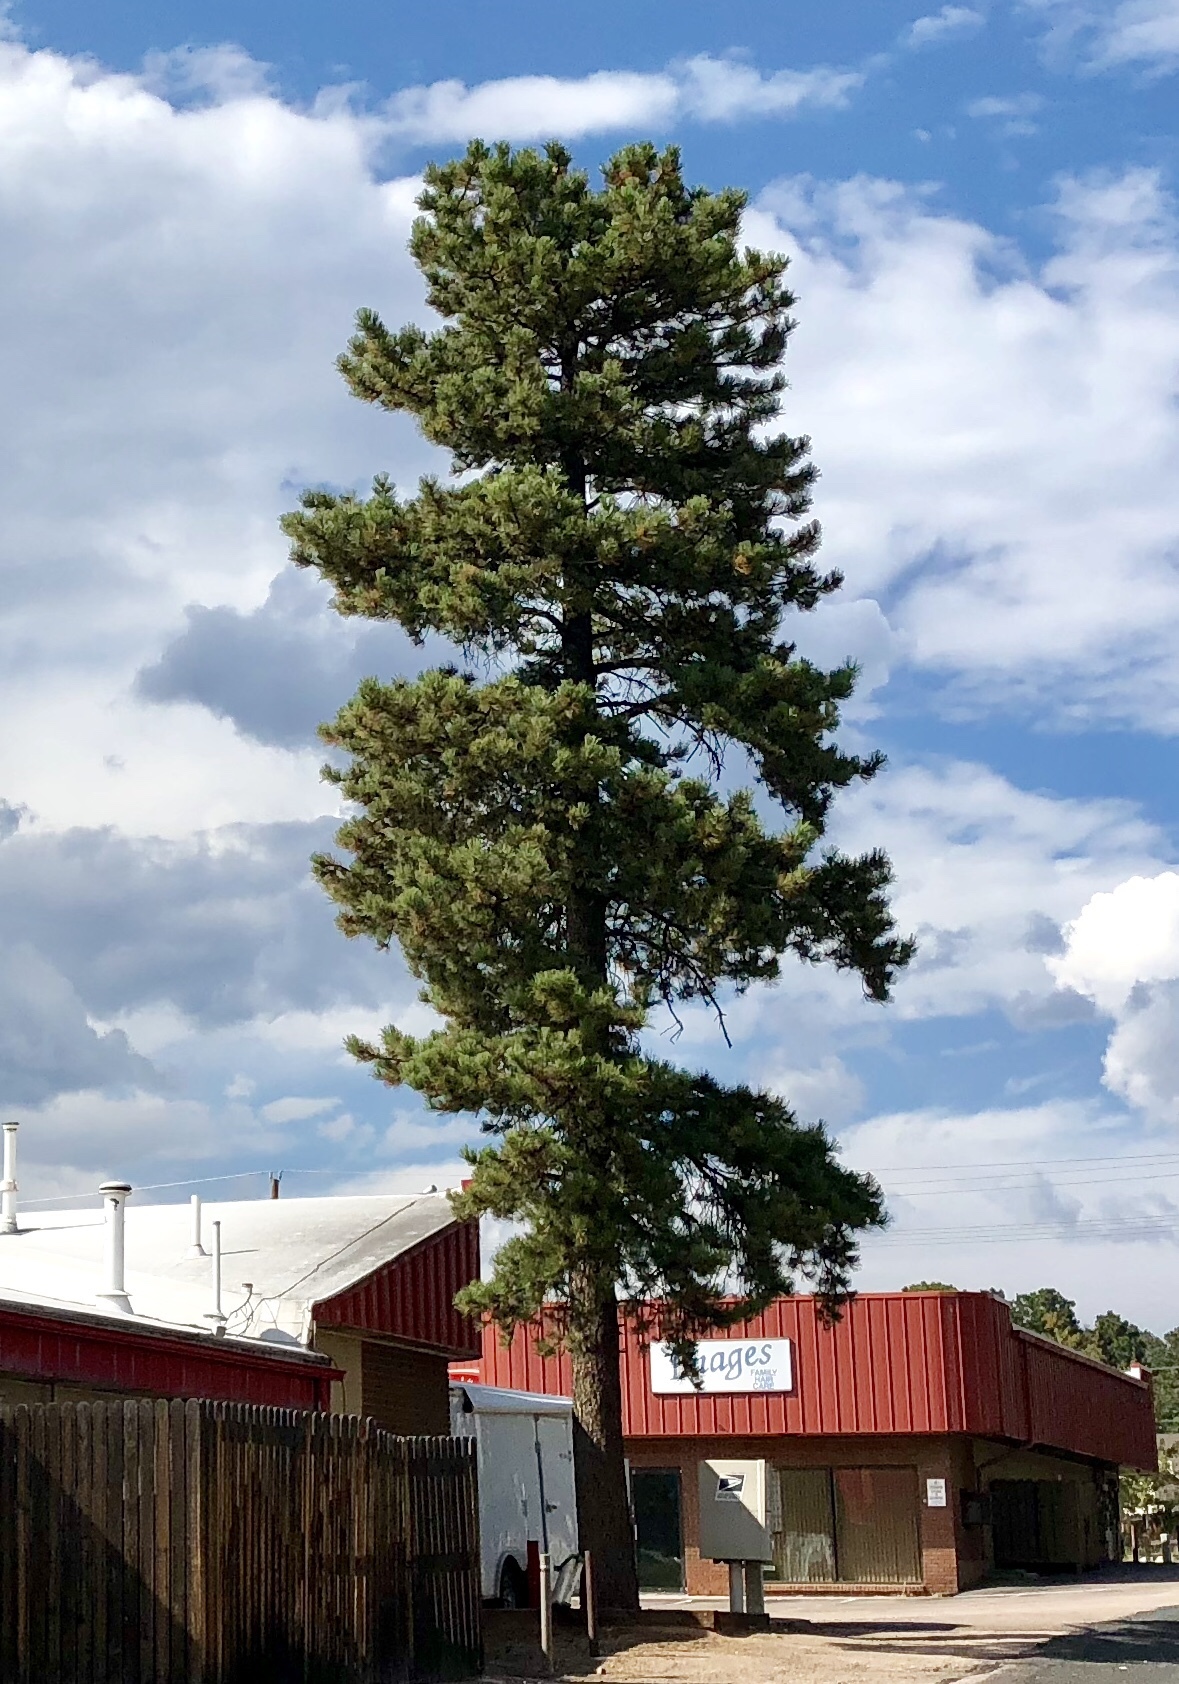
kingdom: Plantae
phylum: Tracheophyta
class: Pinopsida
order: Pinales
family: Pinaceae
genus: Pinus
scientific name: Pinus ponderosa
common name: Western yellow-pine
